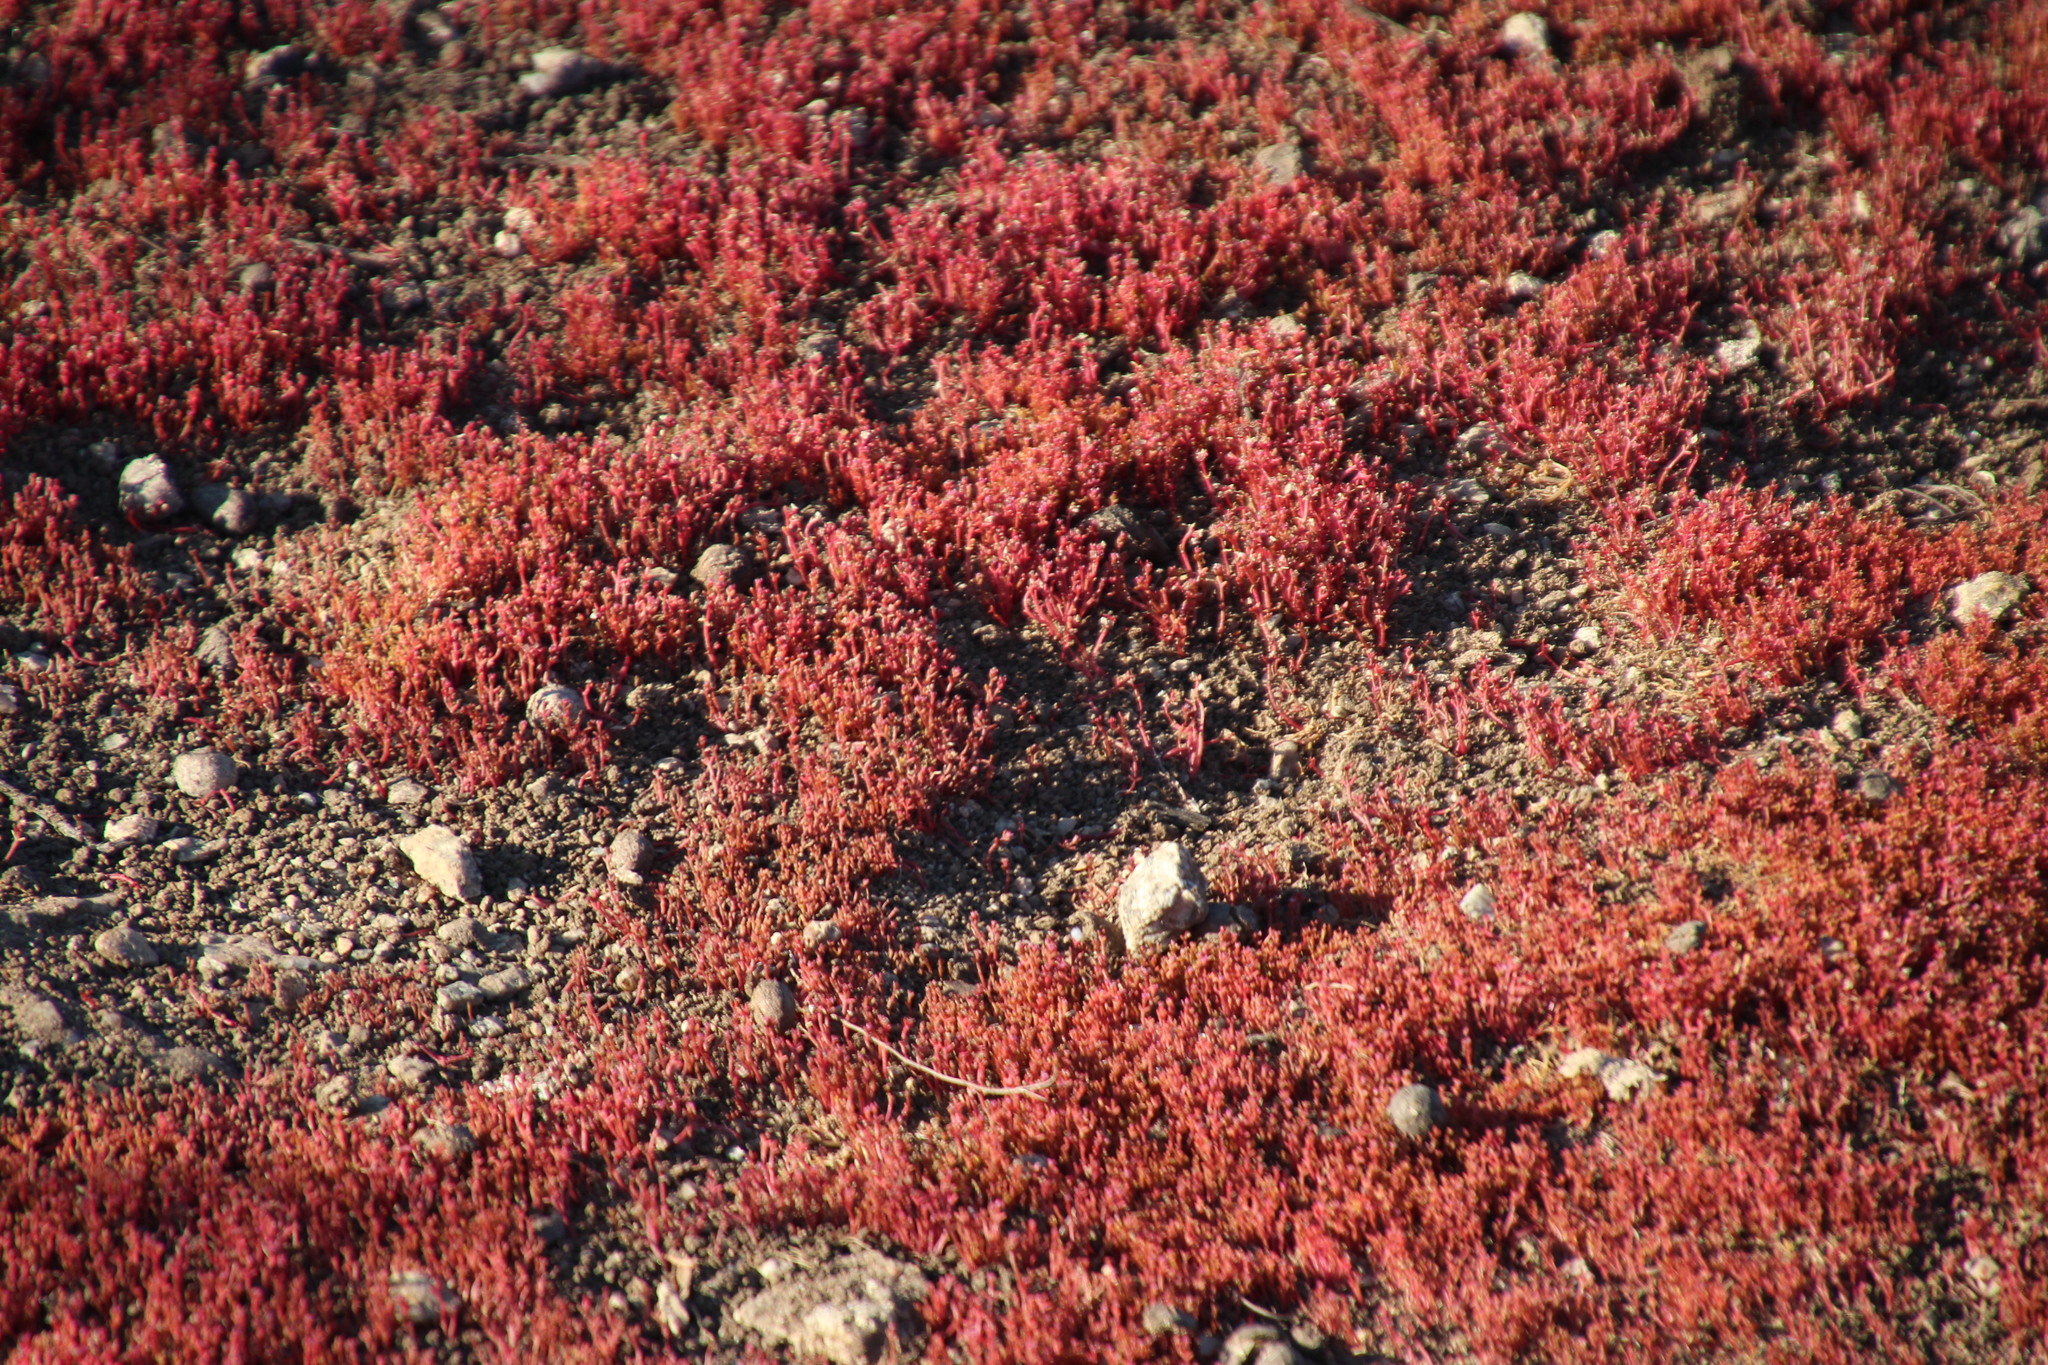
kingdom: Plantae
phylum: Tracheophyta
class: Magnoliopsida
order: Saxifragales
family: Crassulaceae
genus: Crassula
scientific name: Crassula vaillantii
